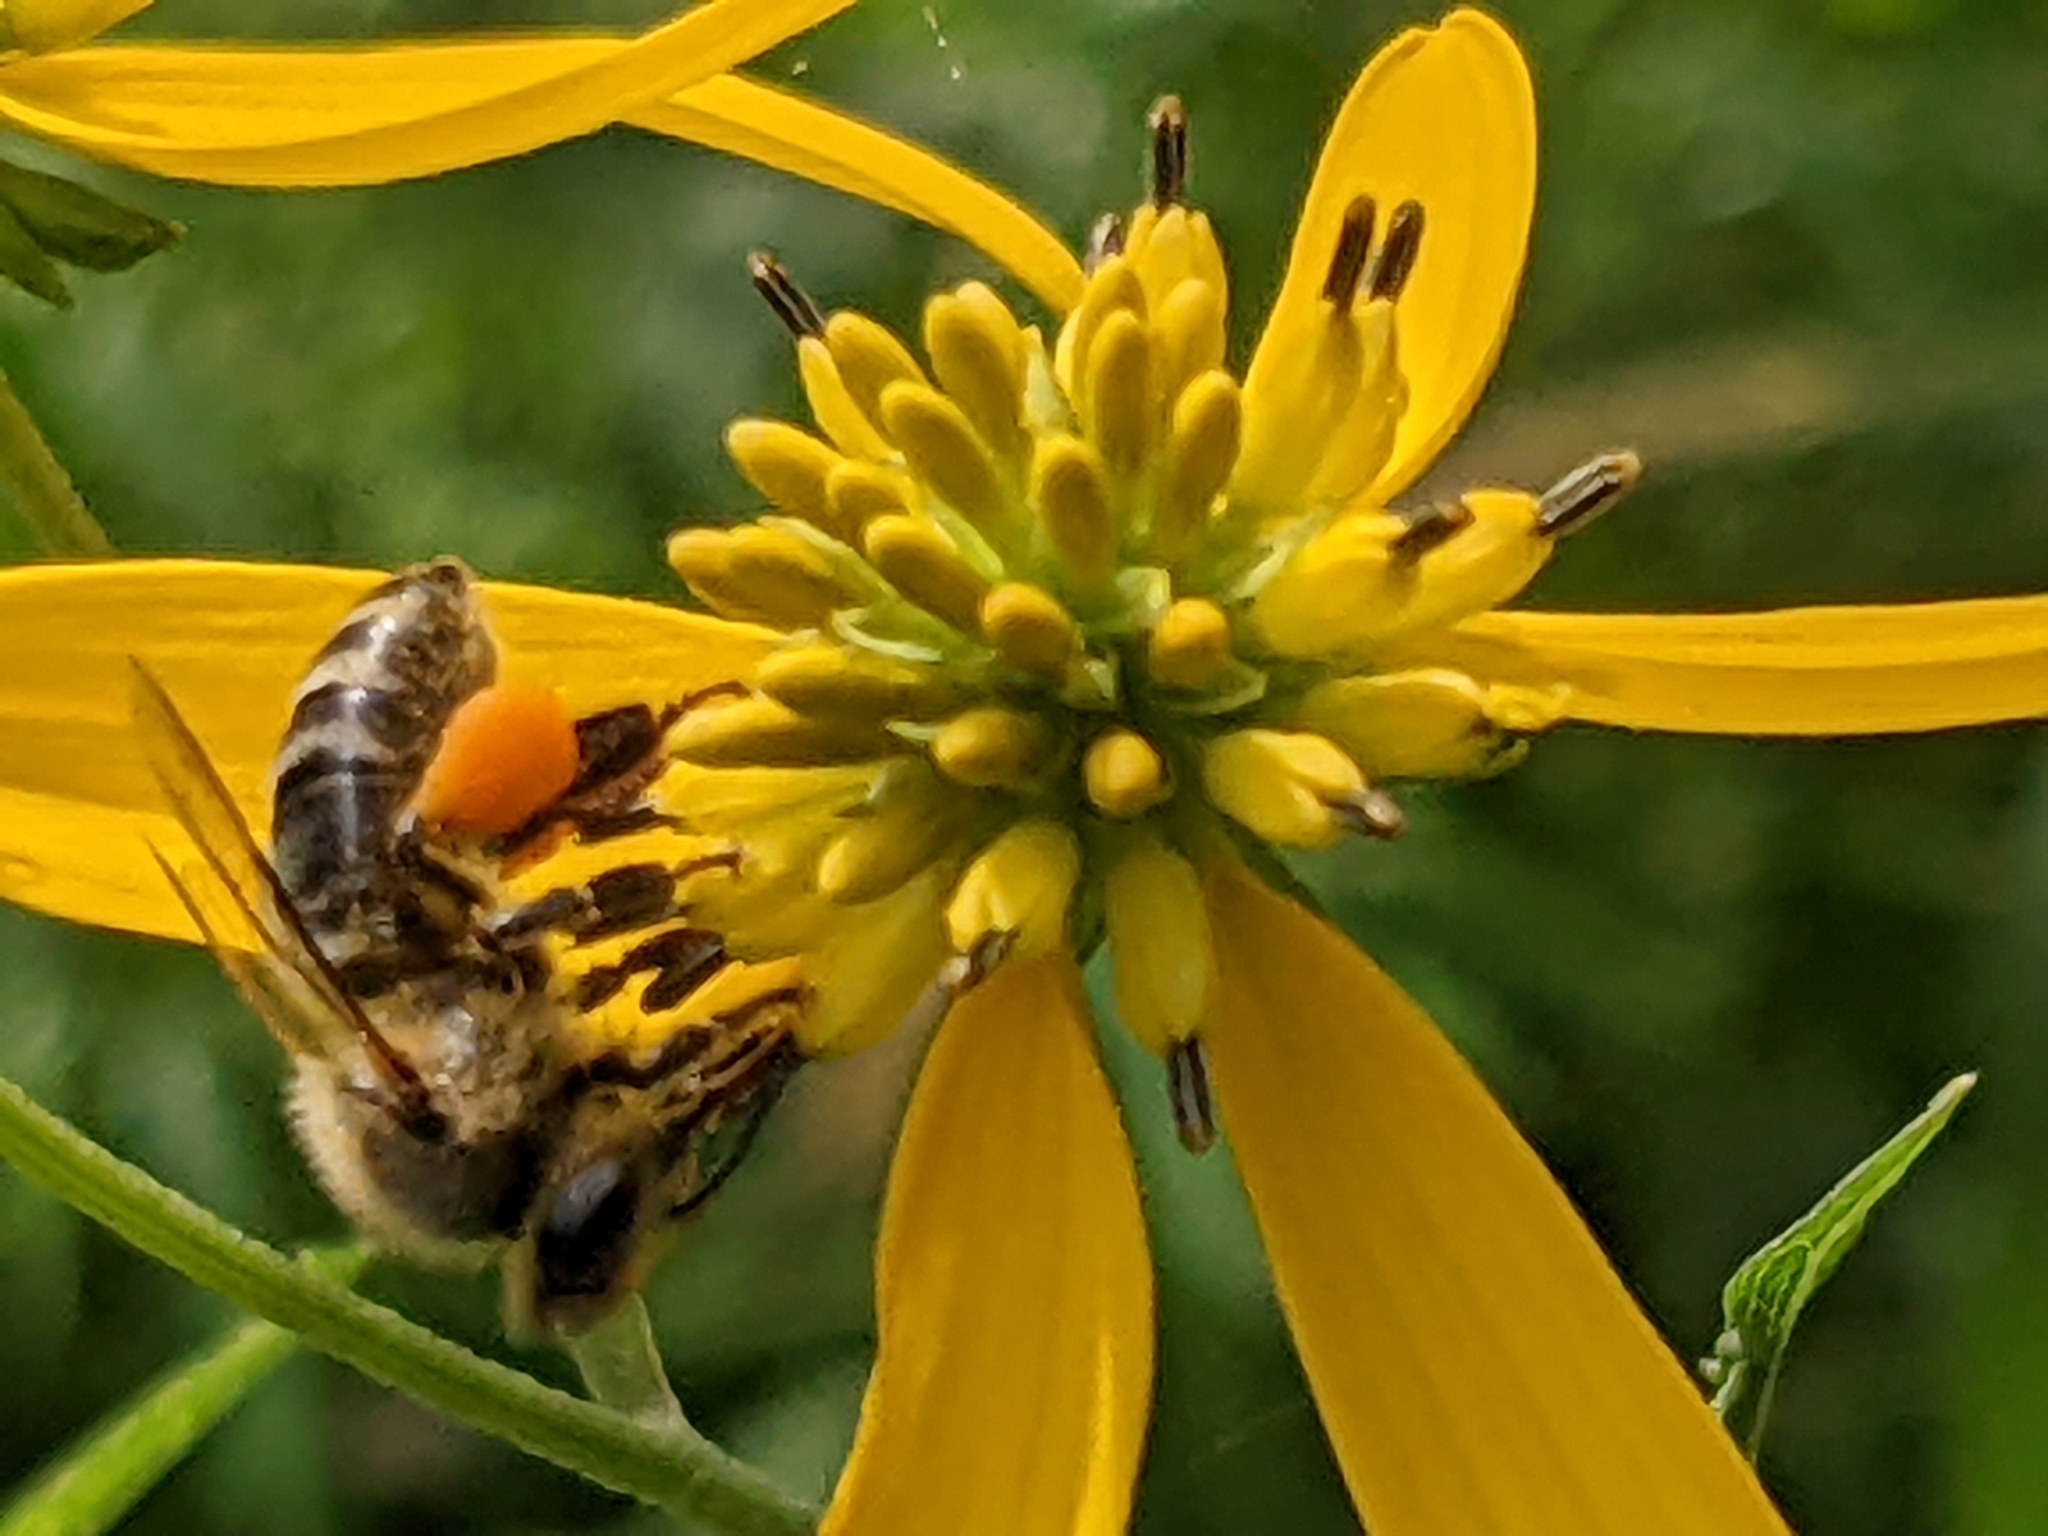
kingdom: Animalia
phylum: Arthropoda
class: Insecta
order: Hymenoptera
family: Apidae
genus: Apis
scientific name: Apis mellifera
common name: Honey bee
